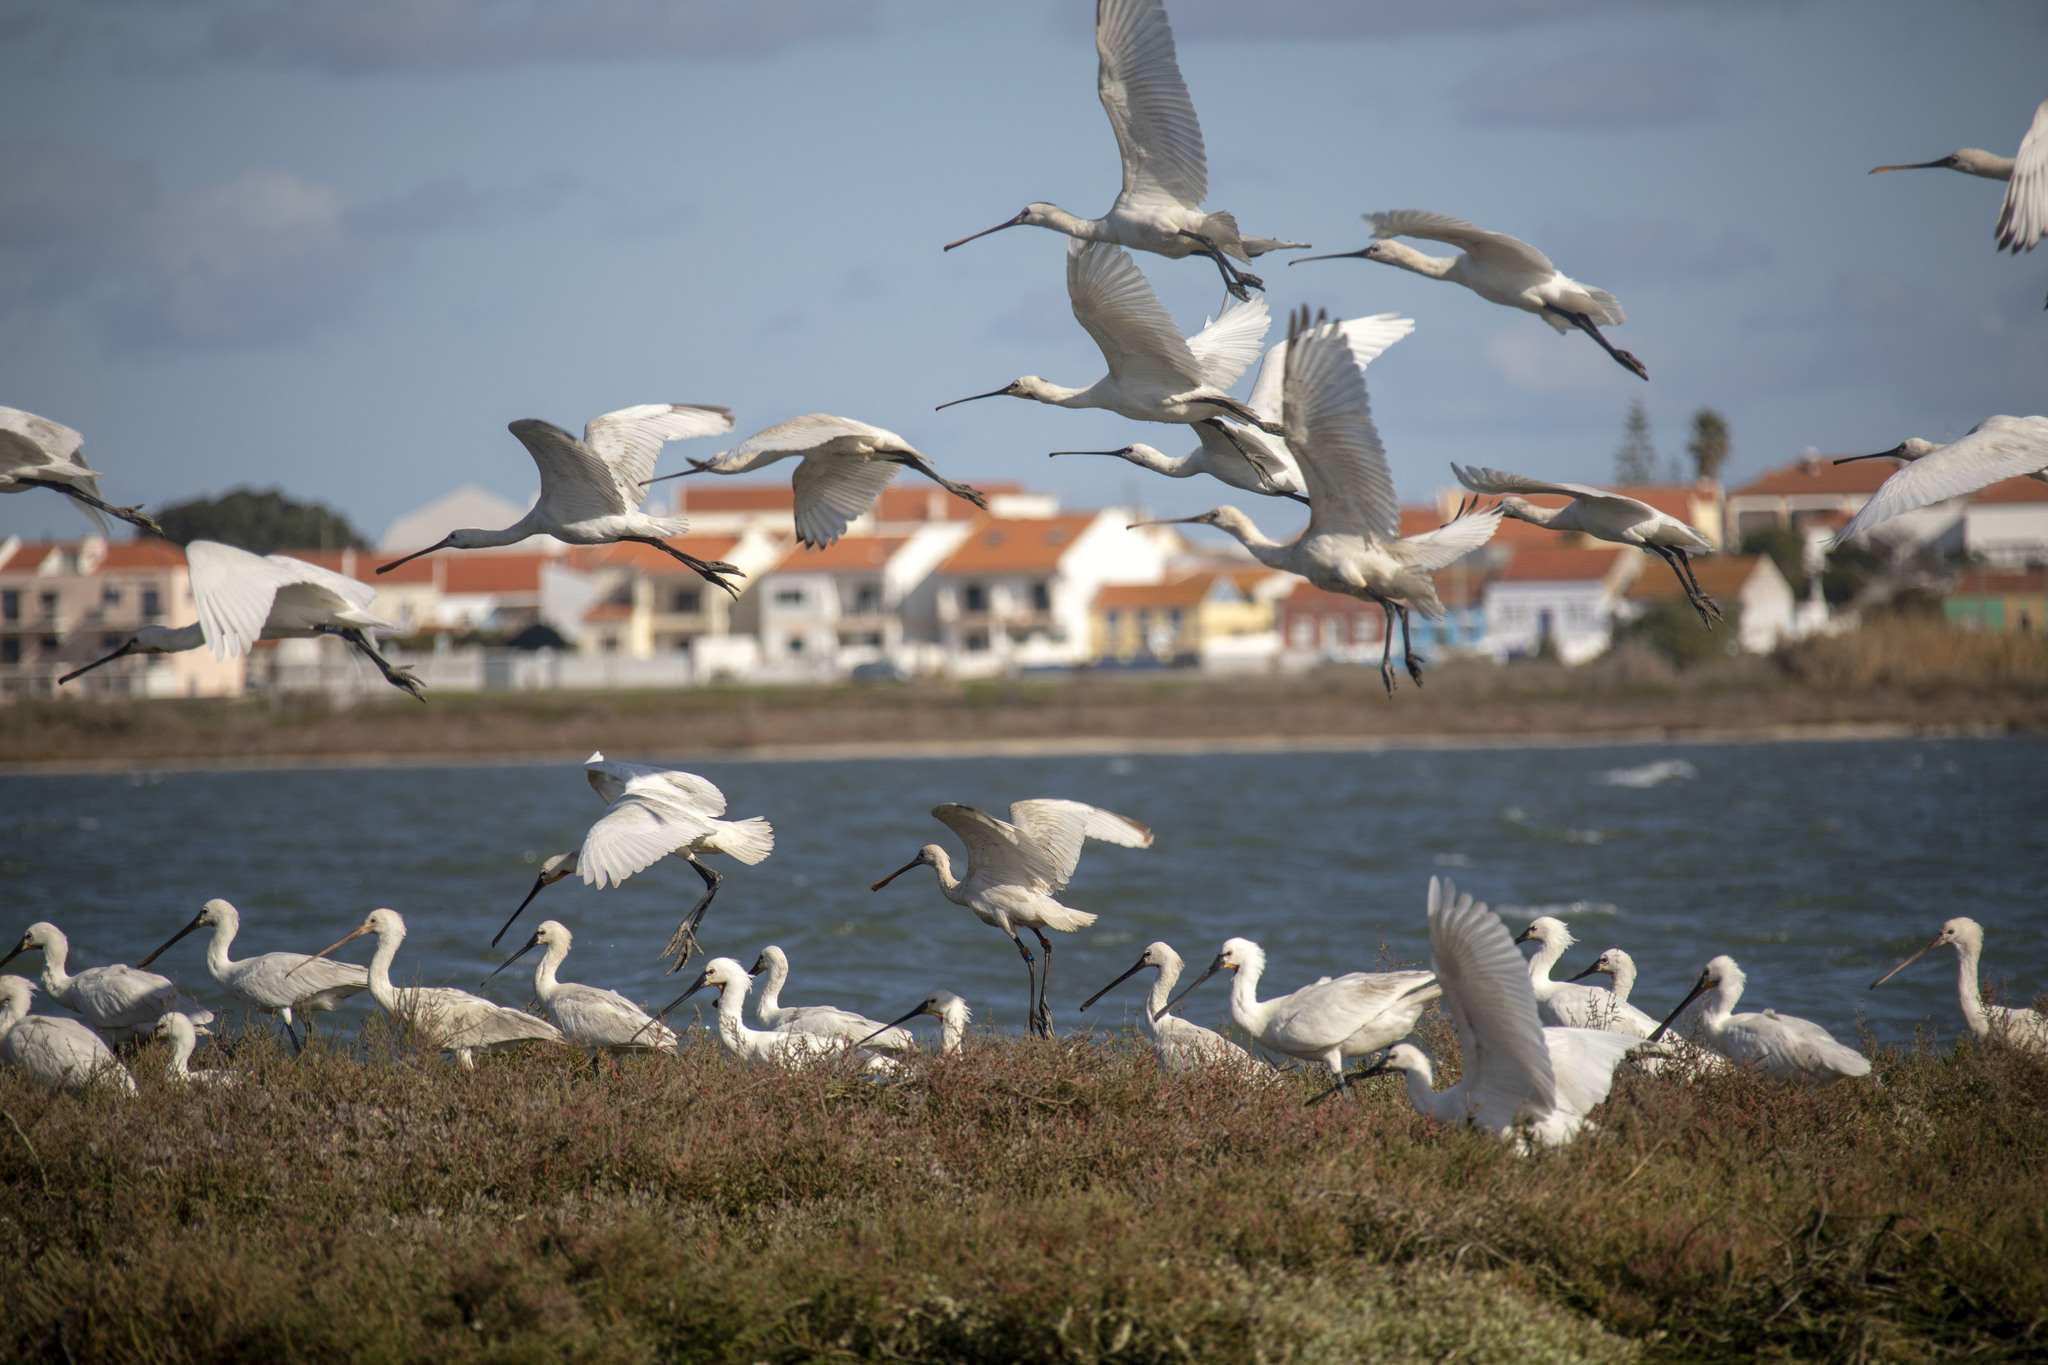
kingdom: Animalia
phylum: Chordata
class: Aves
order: Pelecaniformes
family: Threskiornithidae
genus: Platalea
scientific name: Platalea leucorodia
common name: Eurasian spoonbill
